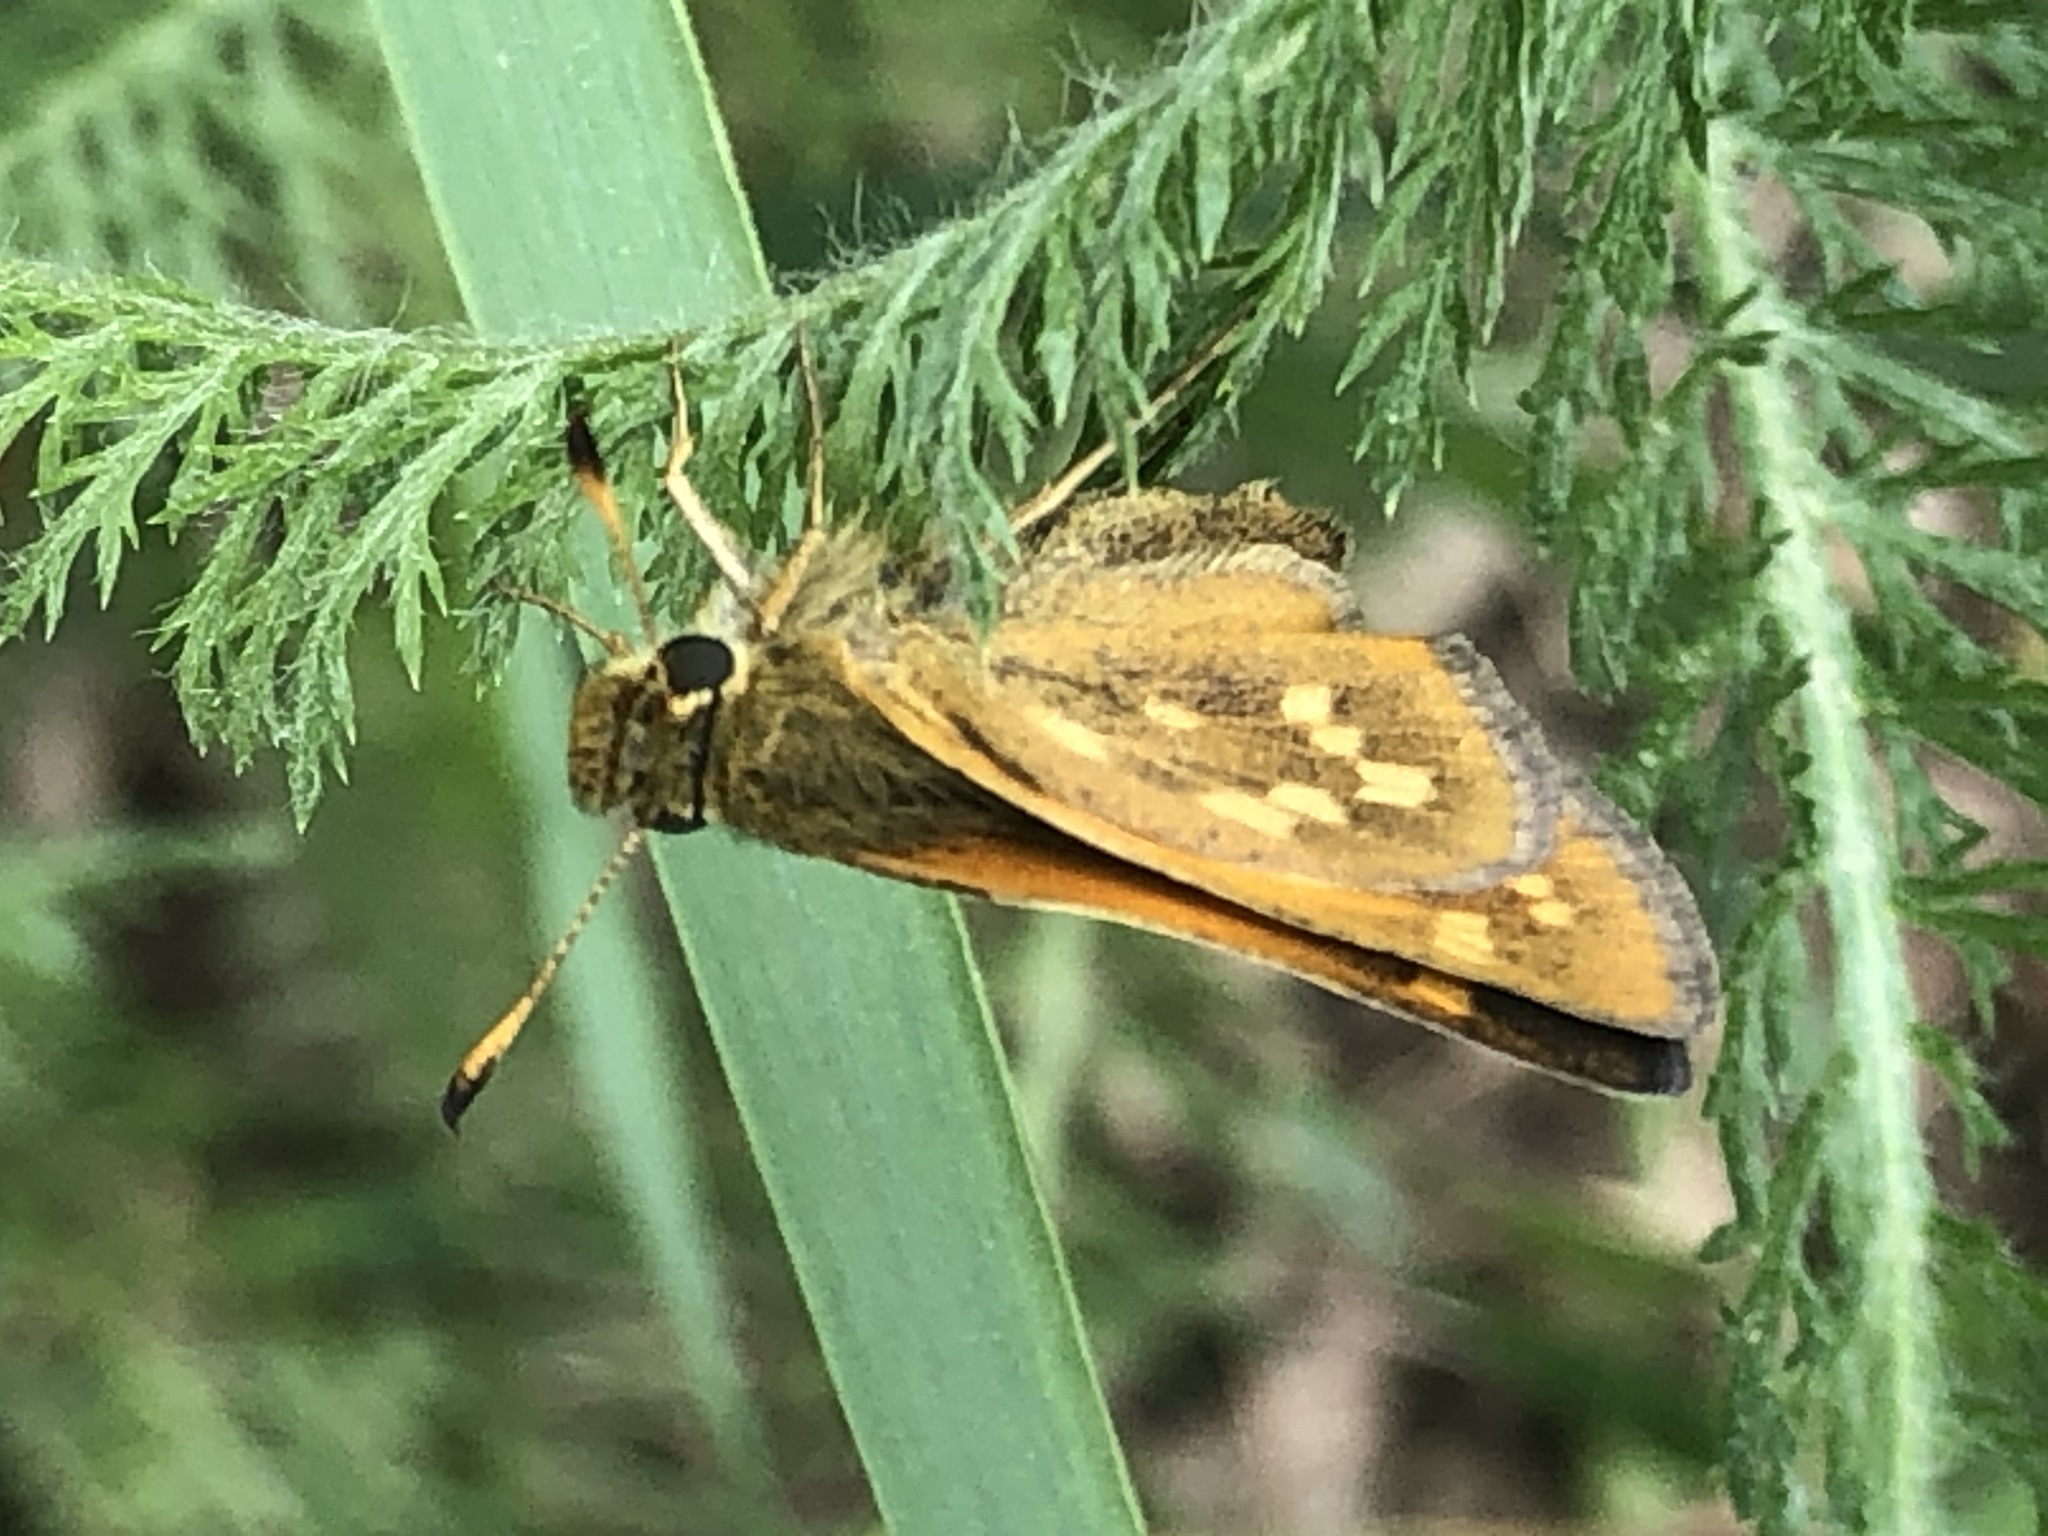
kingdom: Animalia
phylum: Arthropoda
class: Insecta
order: Lepidoptera
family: Hesperiidae
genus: Hesperia
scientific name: Hesperia sassacus
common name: Indian skipper
